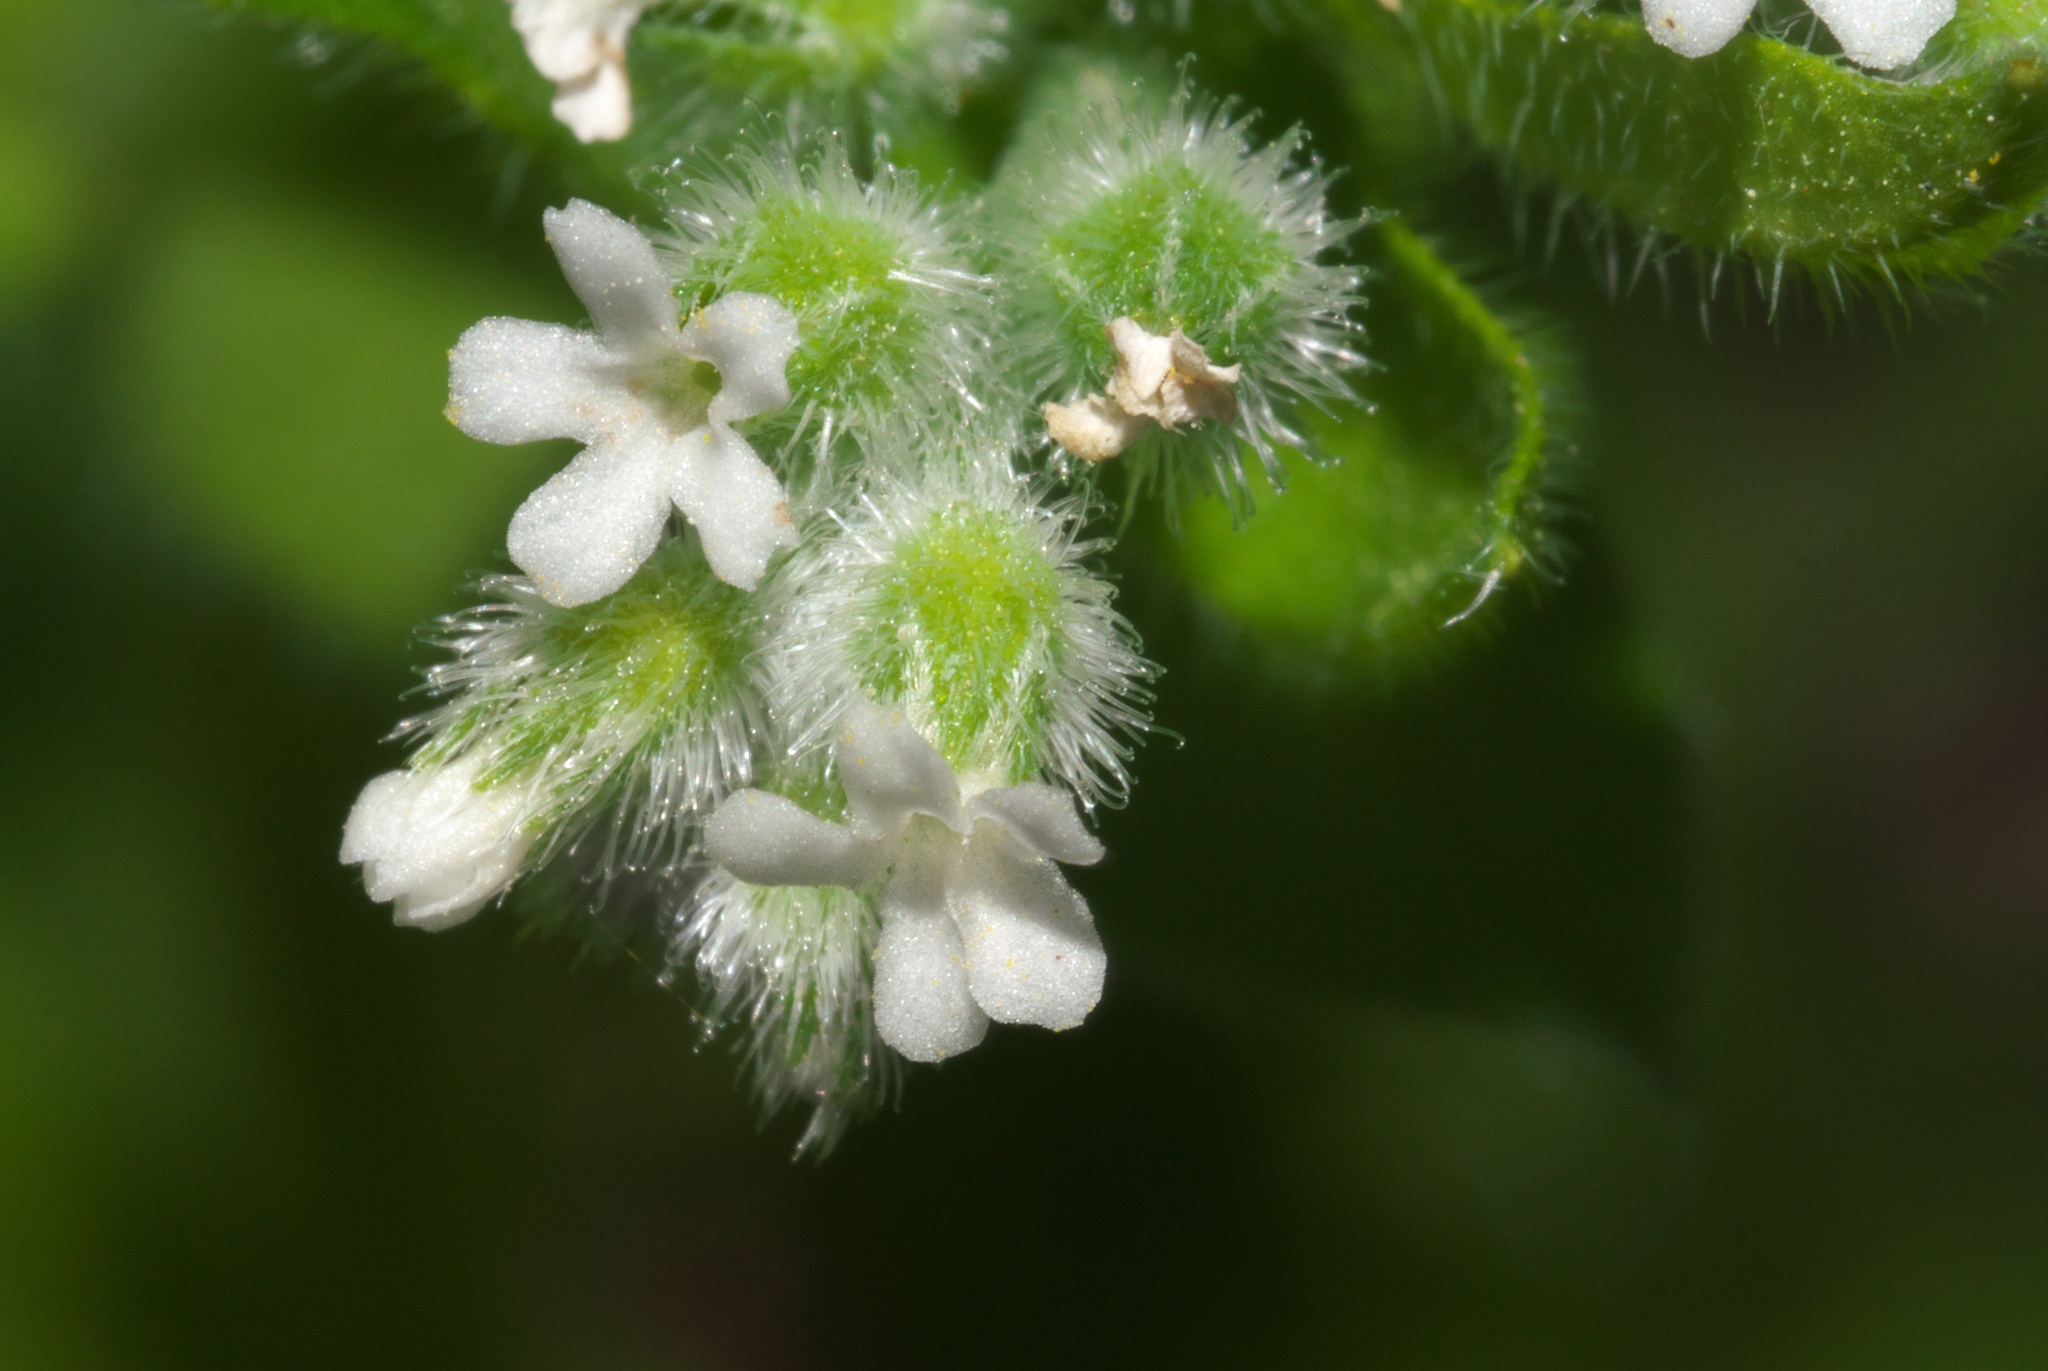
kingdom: Plantae
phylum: Tracheophyta
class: Magnoliopsida
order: Boraginales
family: Boraginaceae
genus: Myosotis
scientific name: Myosotis macrosperma
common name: Large-seed forget-me-not
